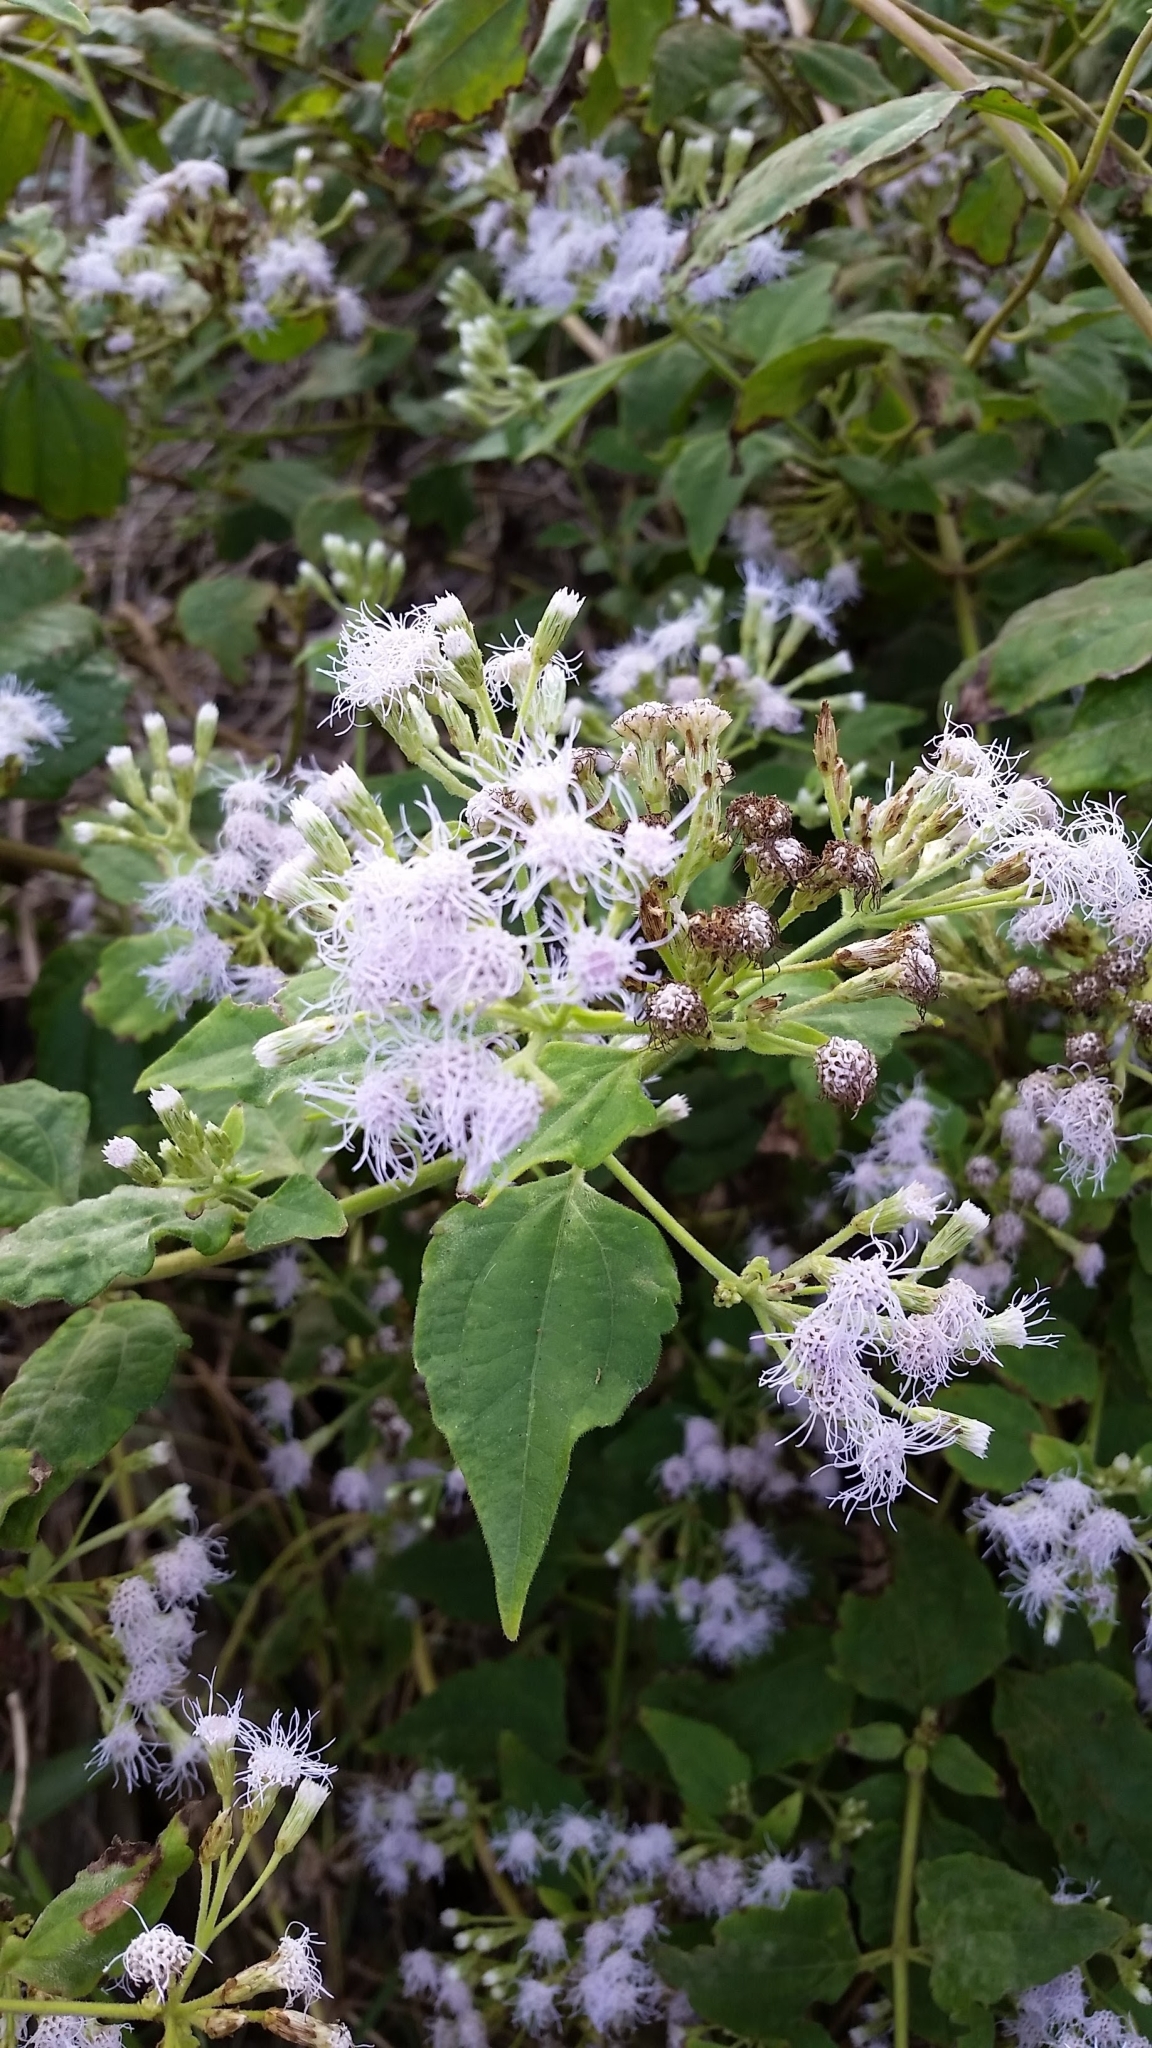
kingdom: Plantae
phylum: Tracheophyta
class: Magnoliopsida
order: Asterales
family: Asteraceae
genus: Chromolaena
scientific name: Chromolaena odorata
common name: Siamweed
